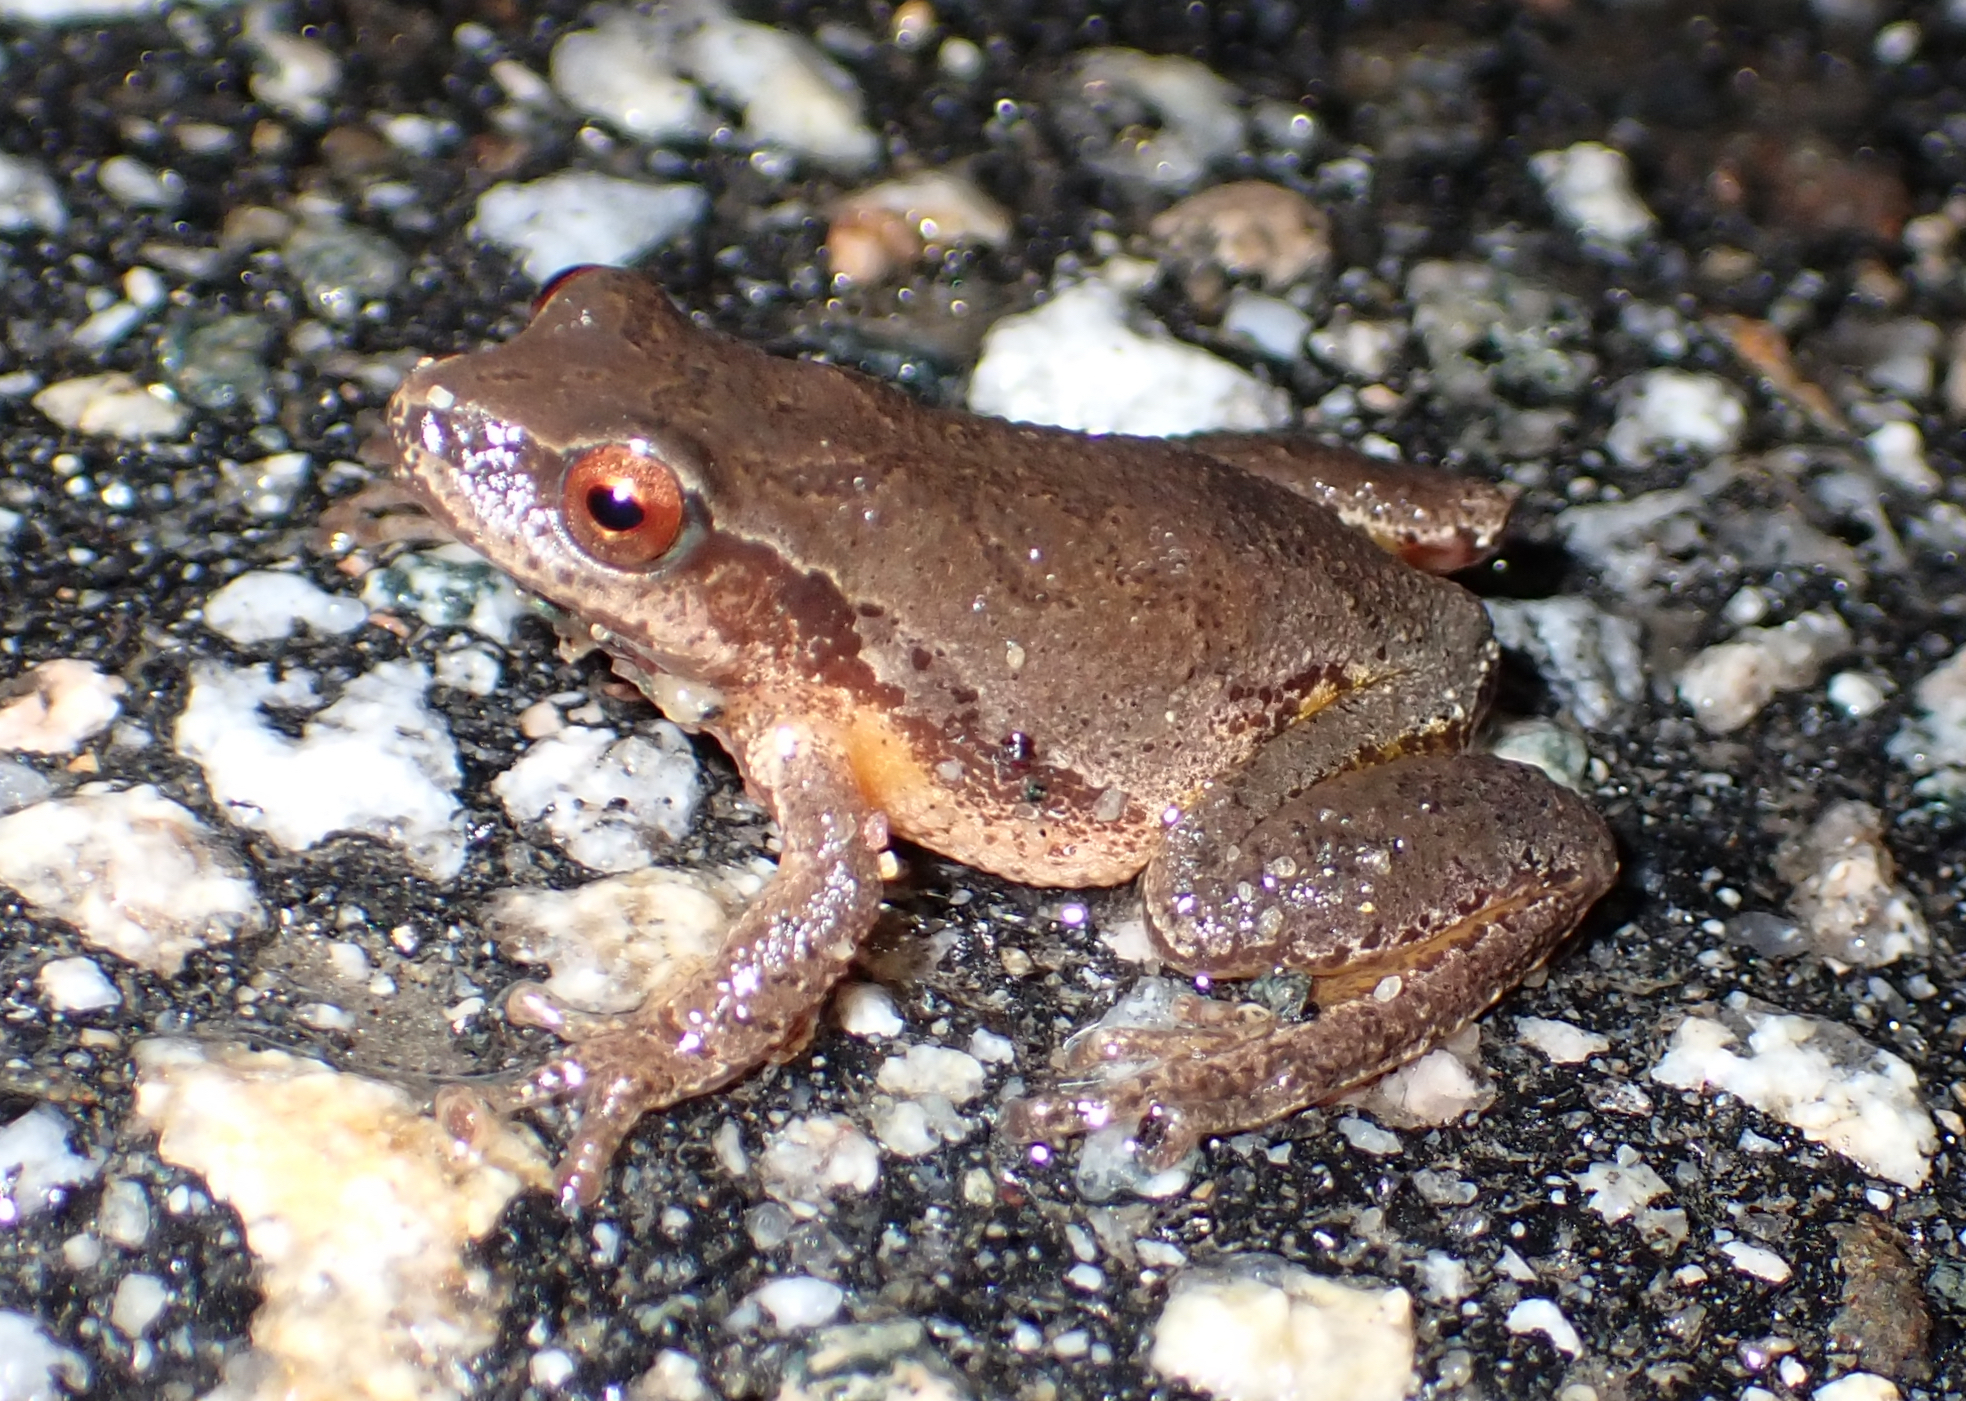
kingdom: Animalia
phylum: Chordata
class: Amphibia
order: Anura
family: Hylidae
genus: Pseudacris
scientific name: Pseudacris crucifer
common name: Spring peeper
